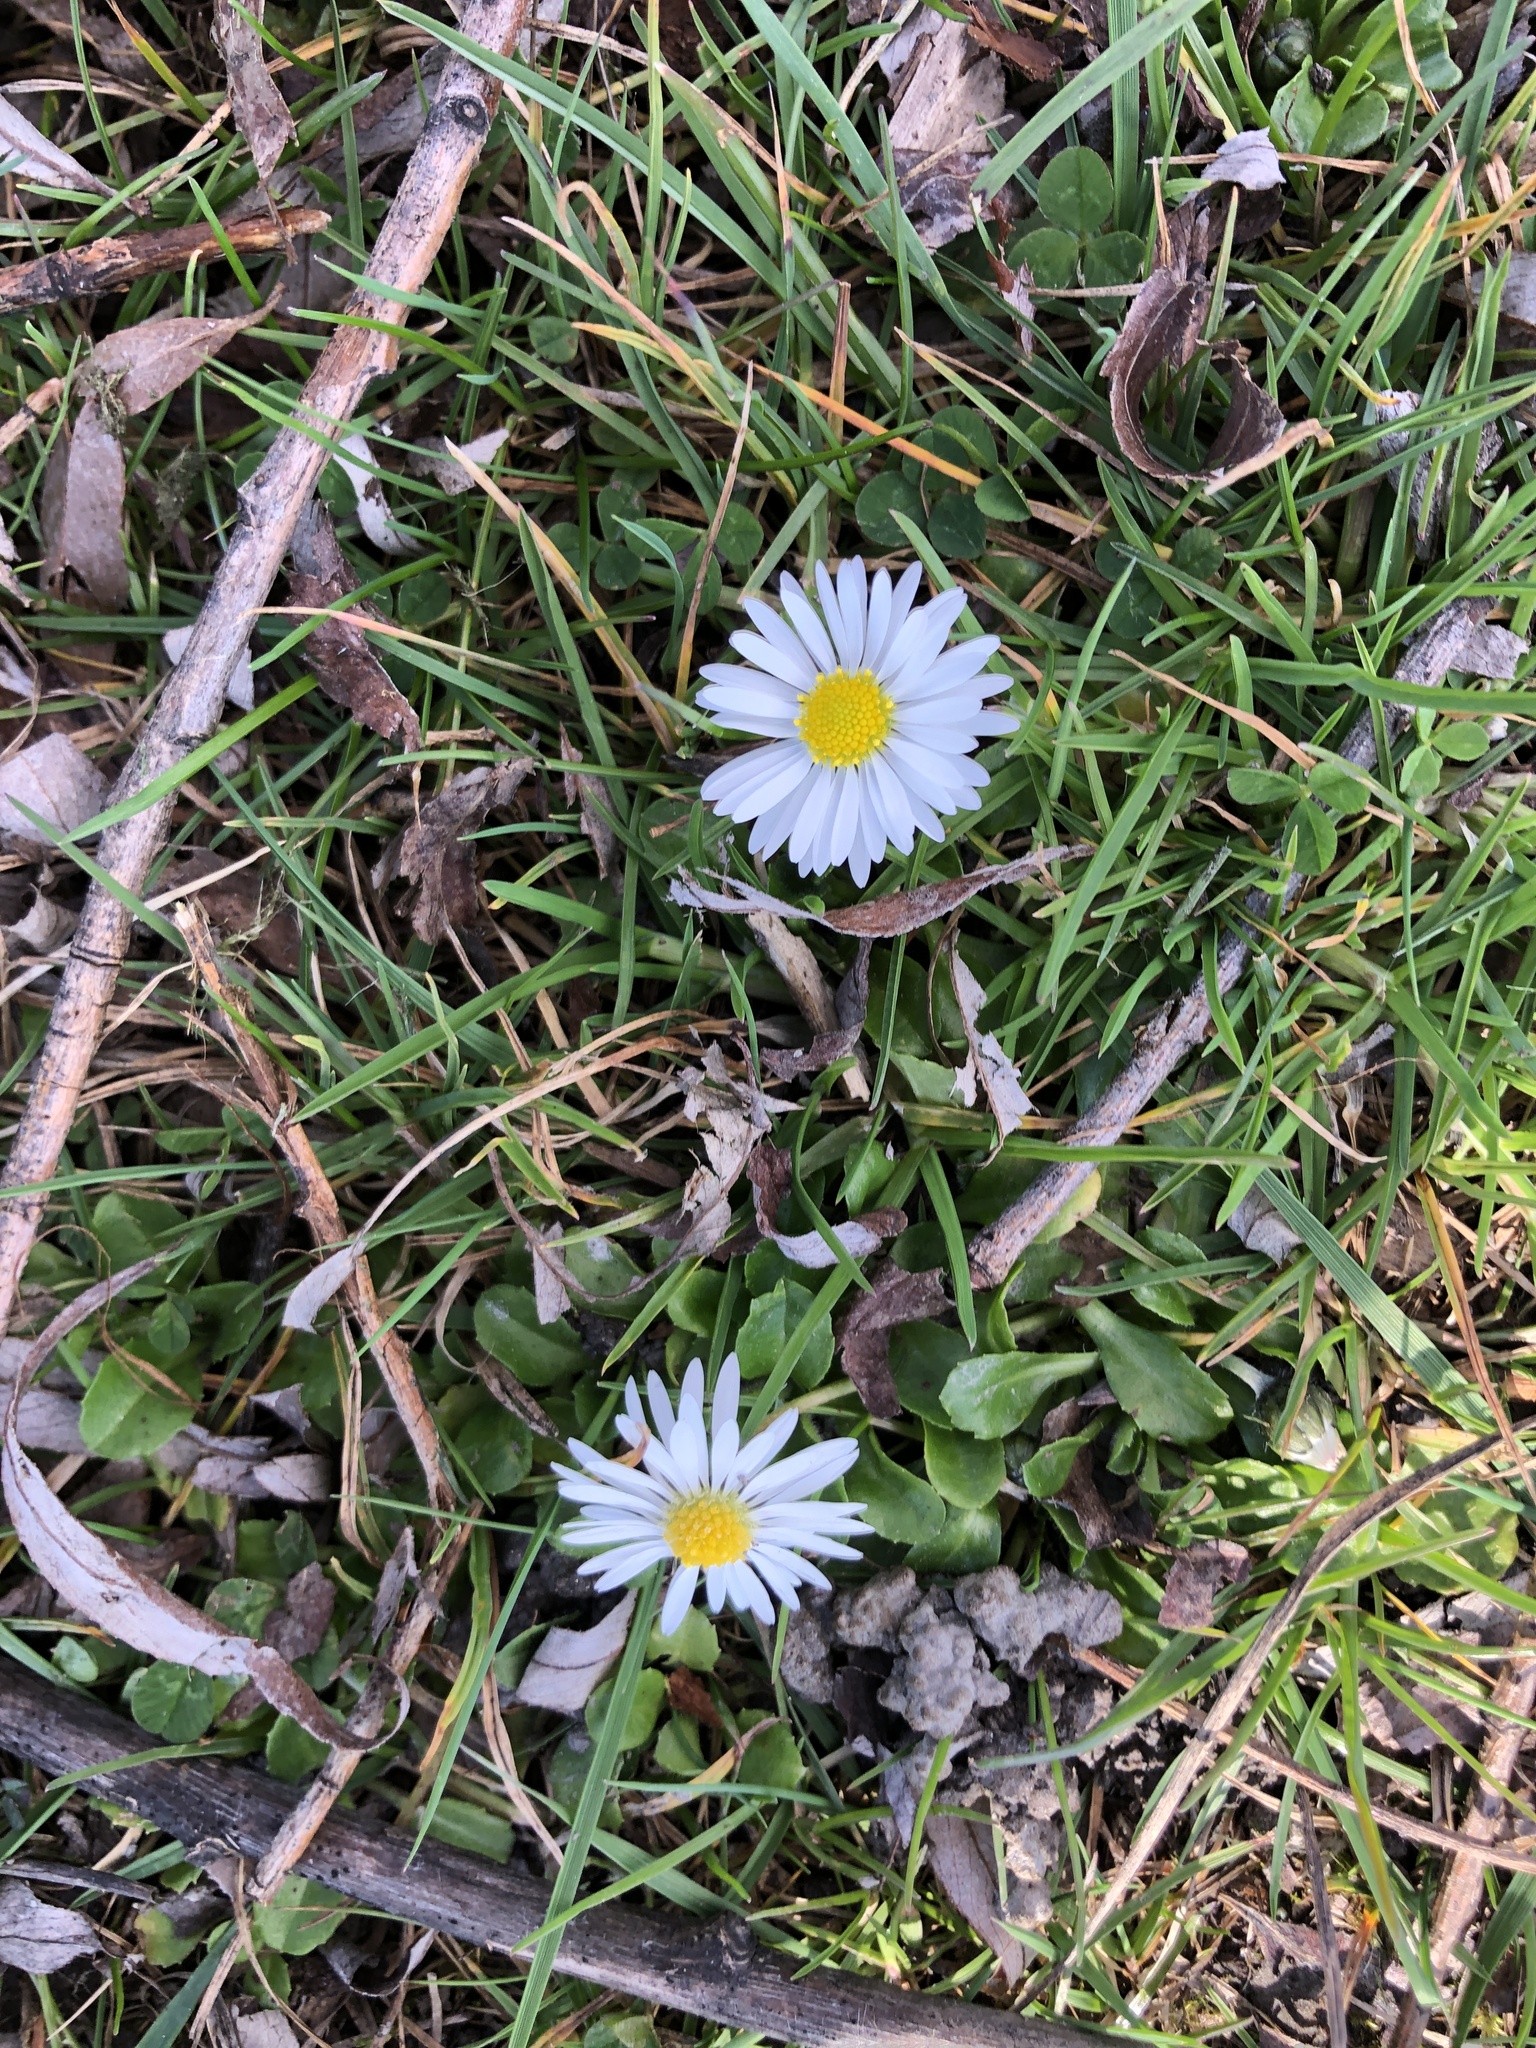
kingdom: Plantae
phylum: Tracheophyta
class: Magnoliopsida
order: Asterales
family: Asteraceae
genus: Bellis
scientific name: Bellis perennis
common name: Lawndaisy
